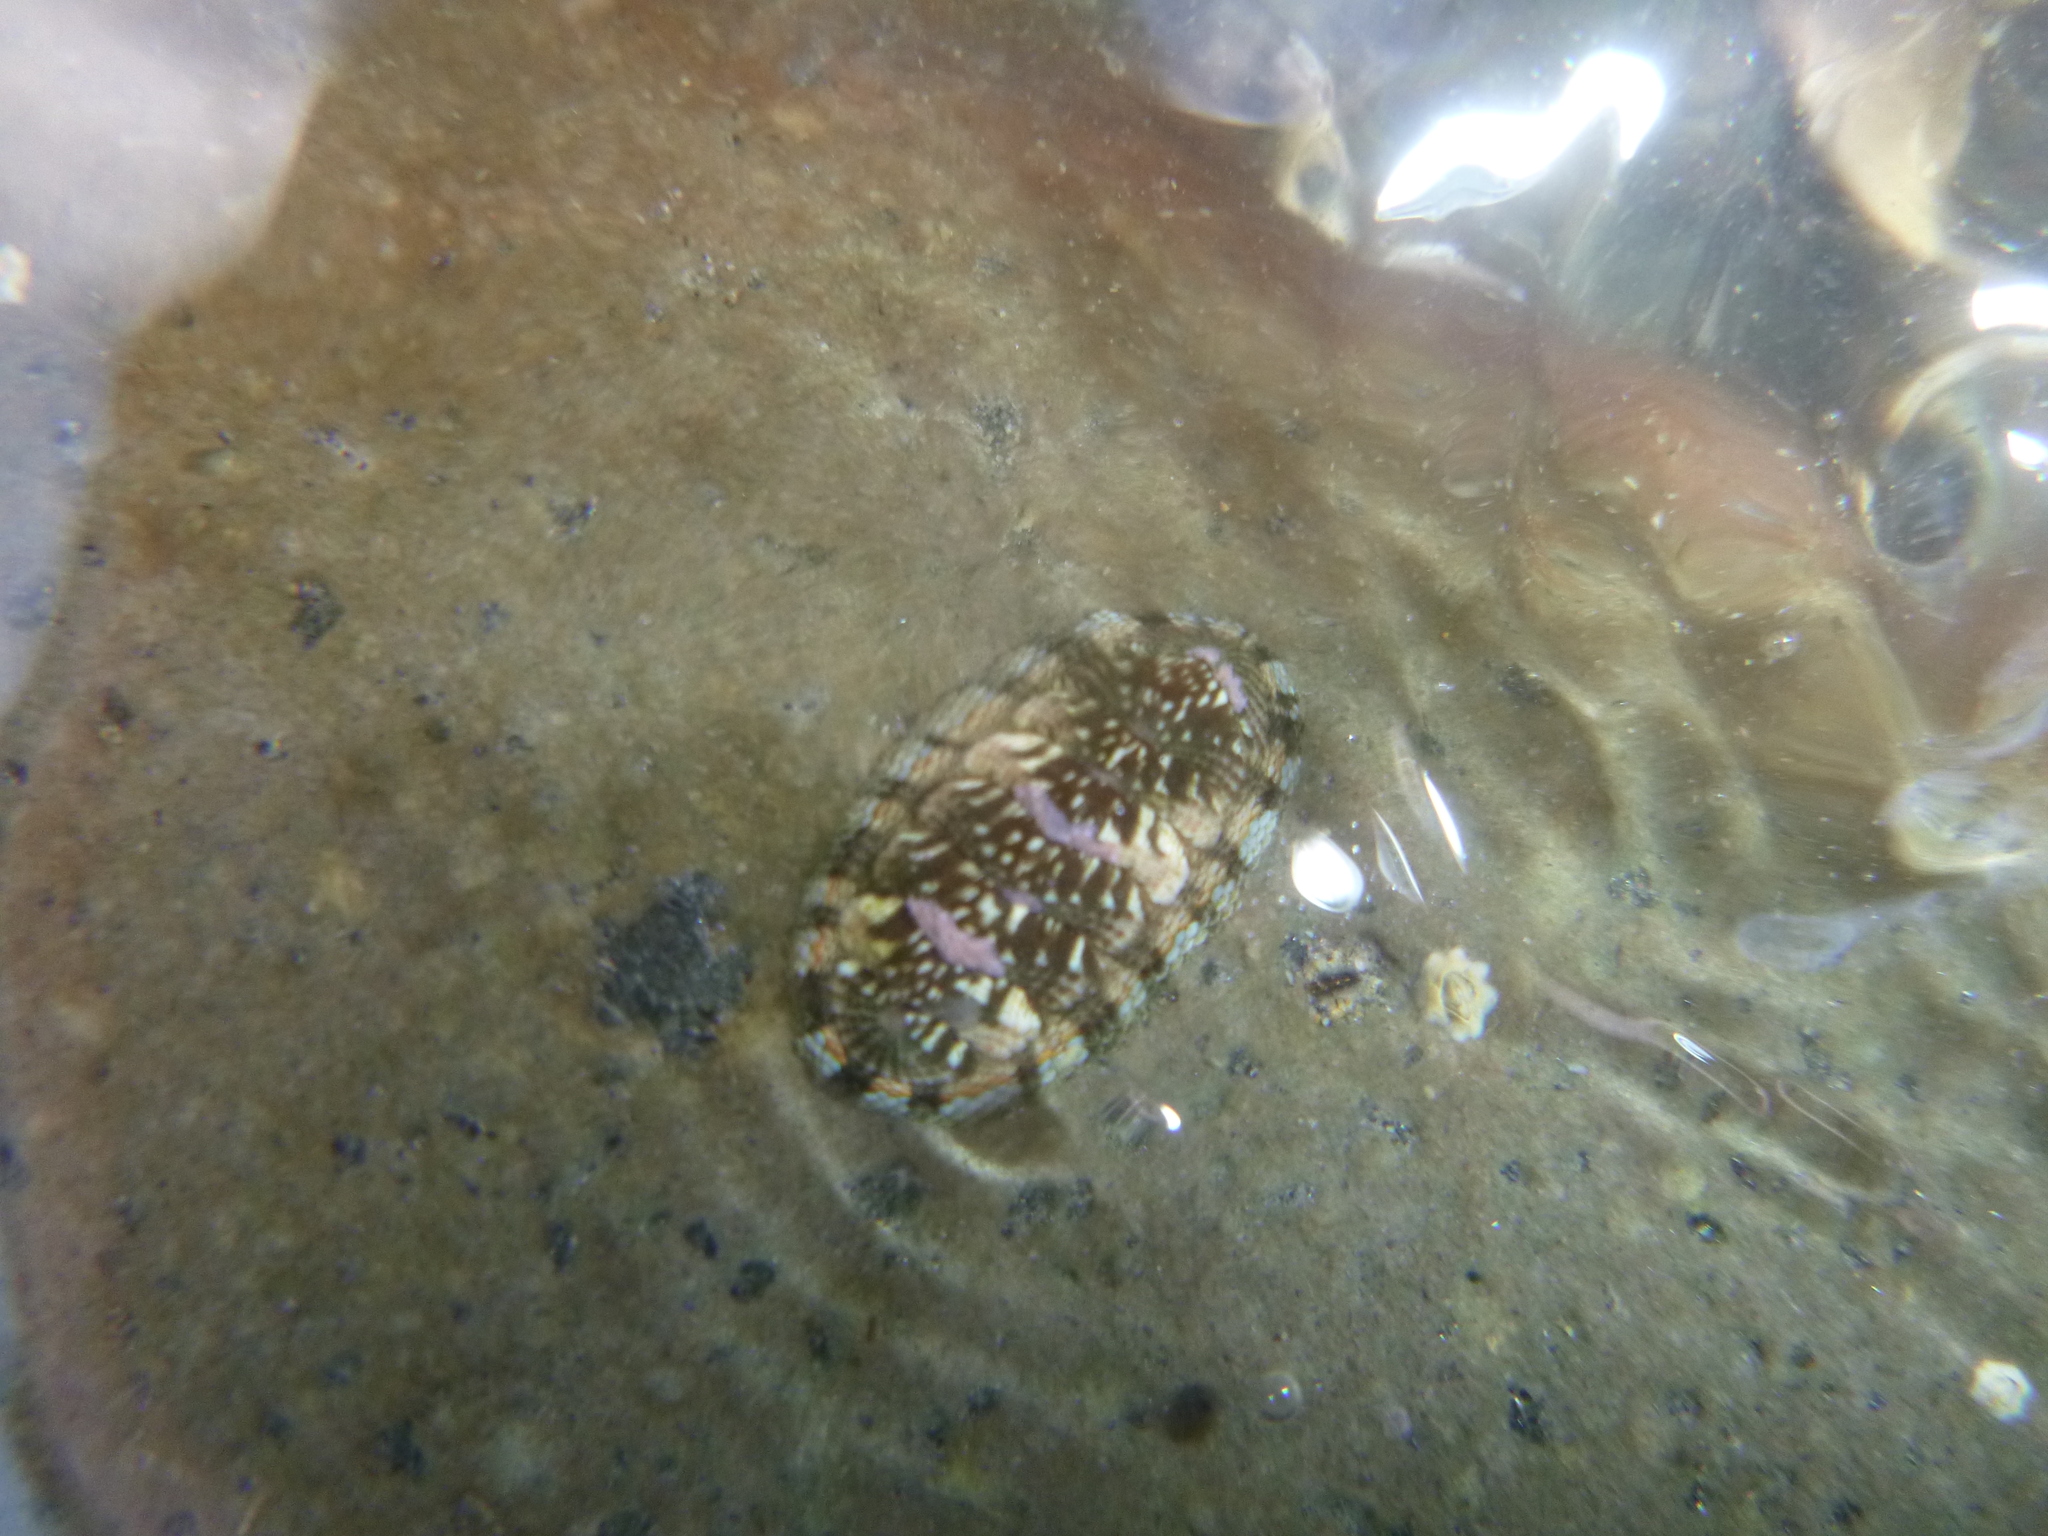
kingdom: Animalia
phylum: Mollusca
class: Polyplacophora
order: Chitonida
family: Chitonidae
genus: Sypharochiton
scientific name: Sypharochiton sinclairi
